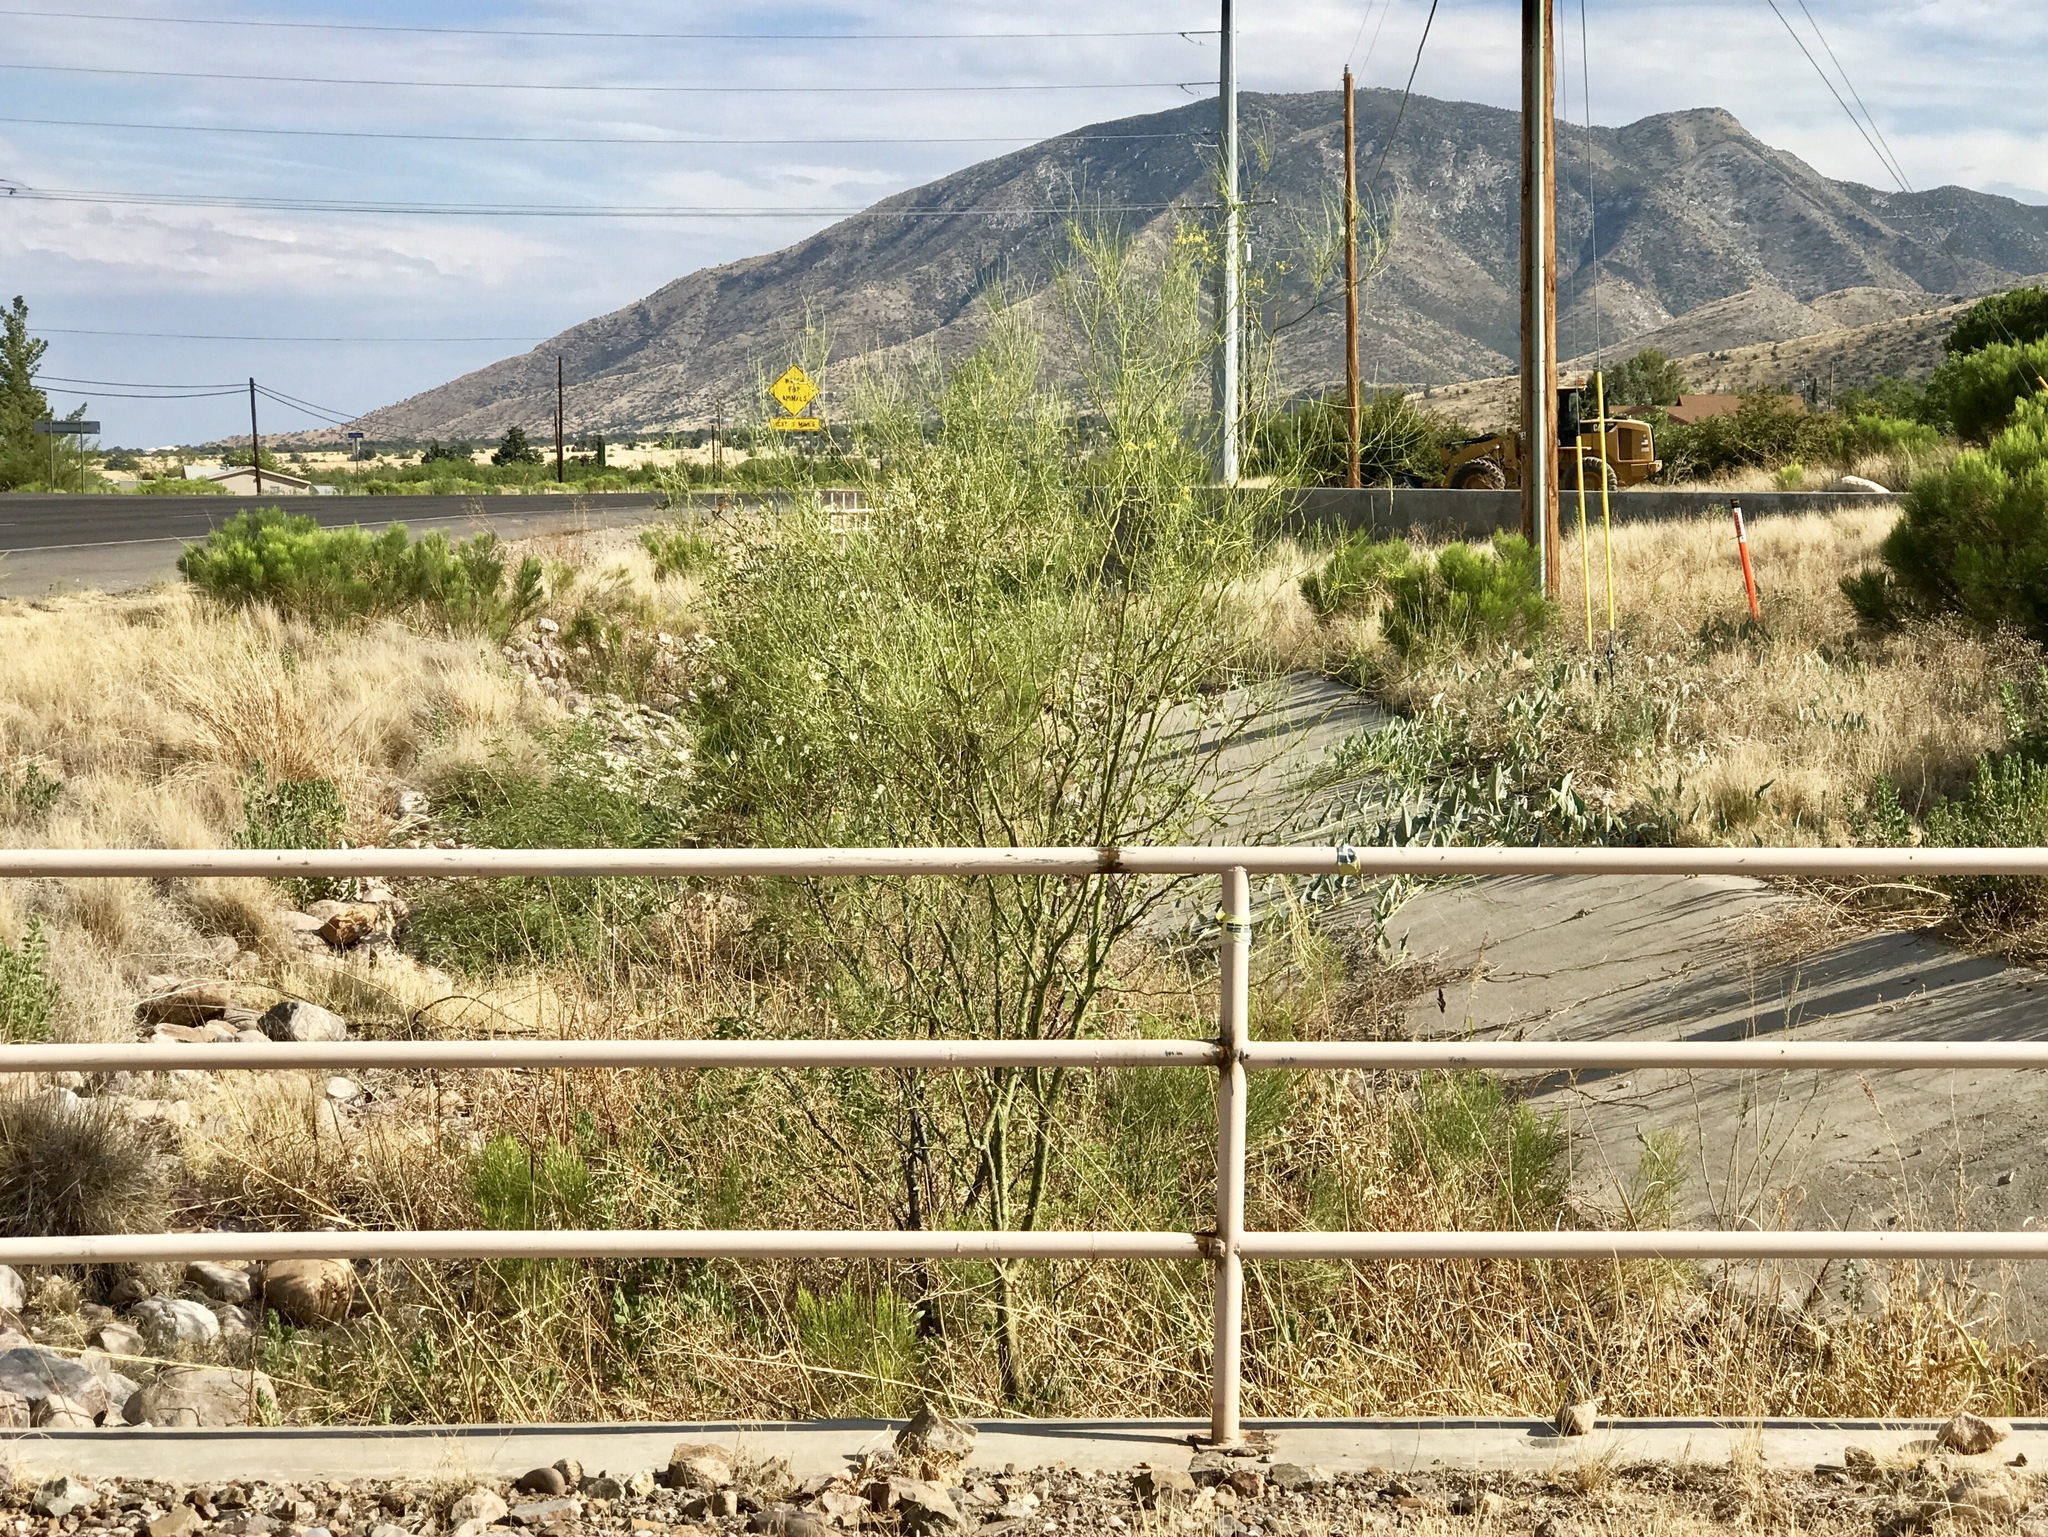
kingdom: Plantae
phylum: Tracheophyta
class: Magnoliopsida
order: Fabales
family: Fabaceae
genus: Parkinsonia
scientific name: Parkinsonia aculeata
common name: Jerusalem thorn
